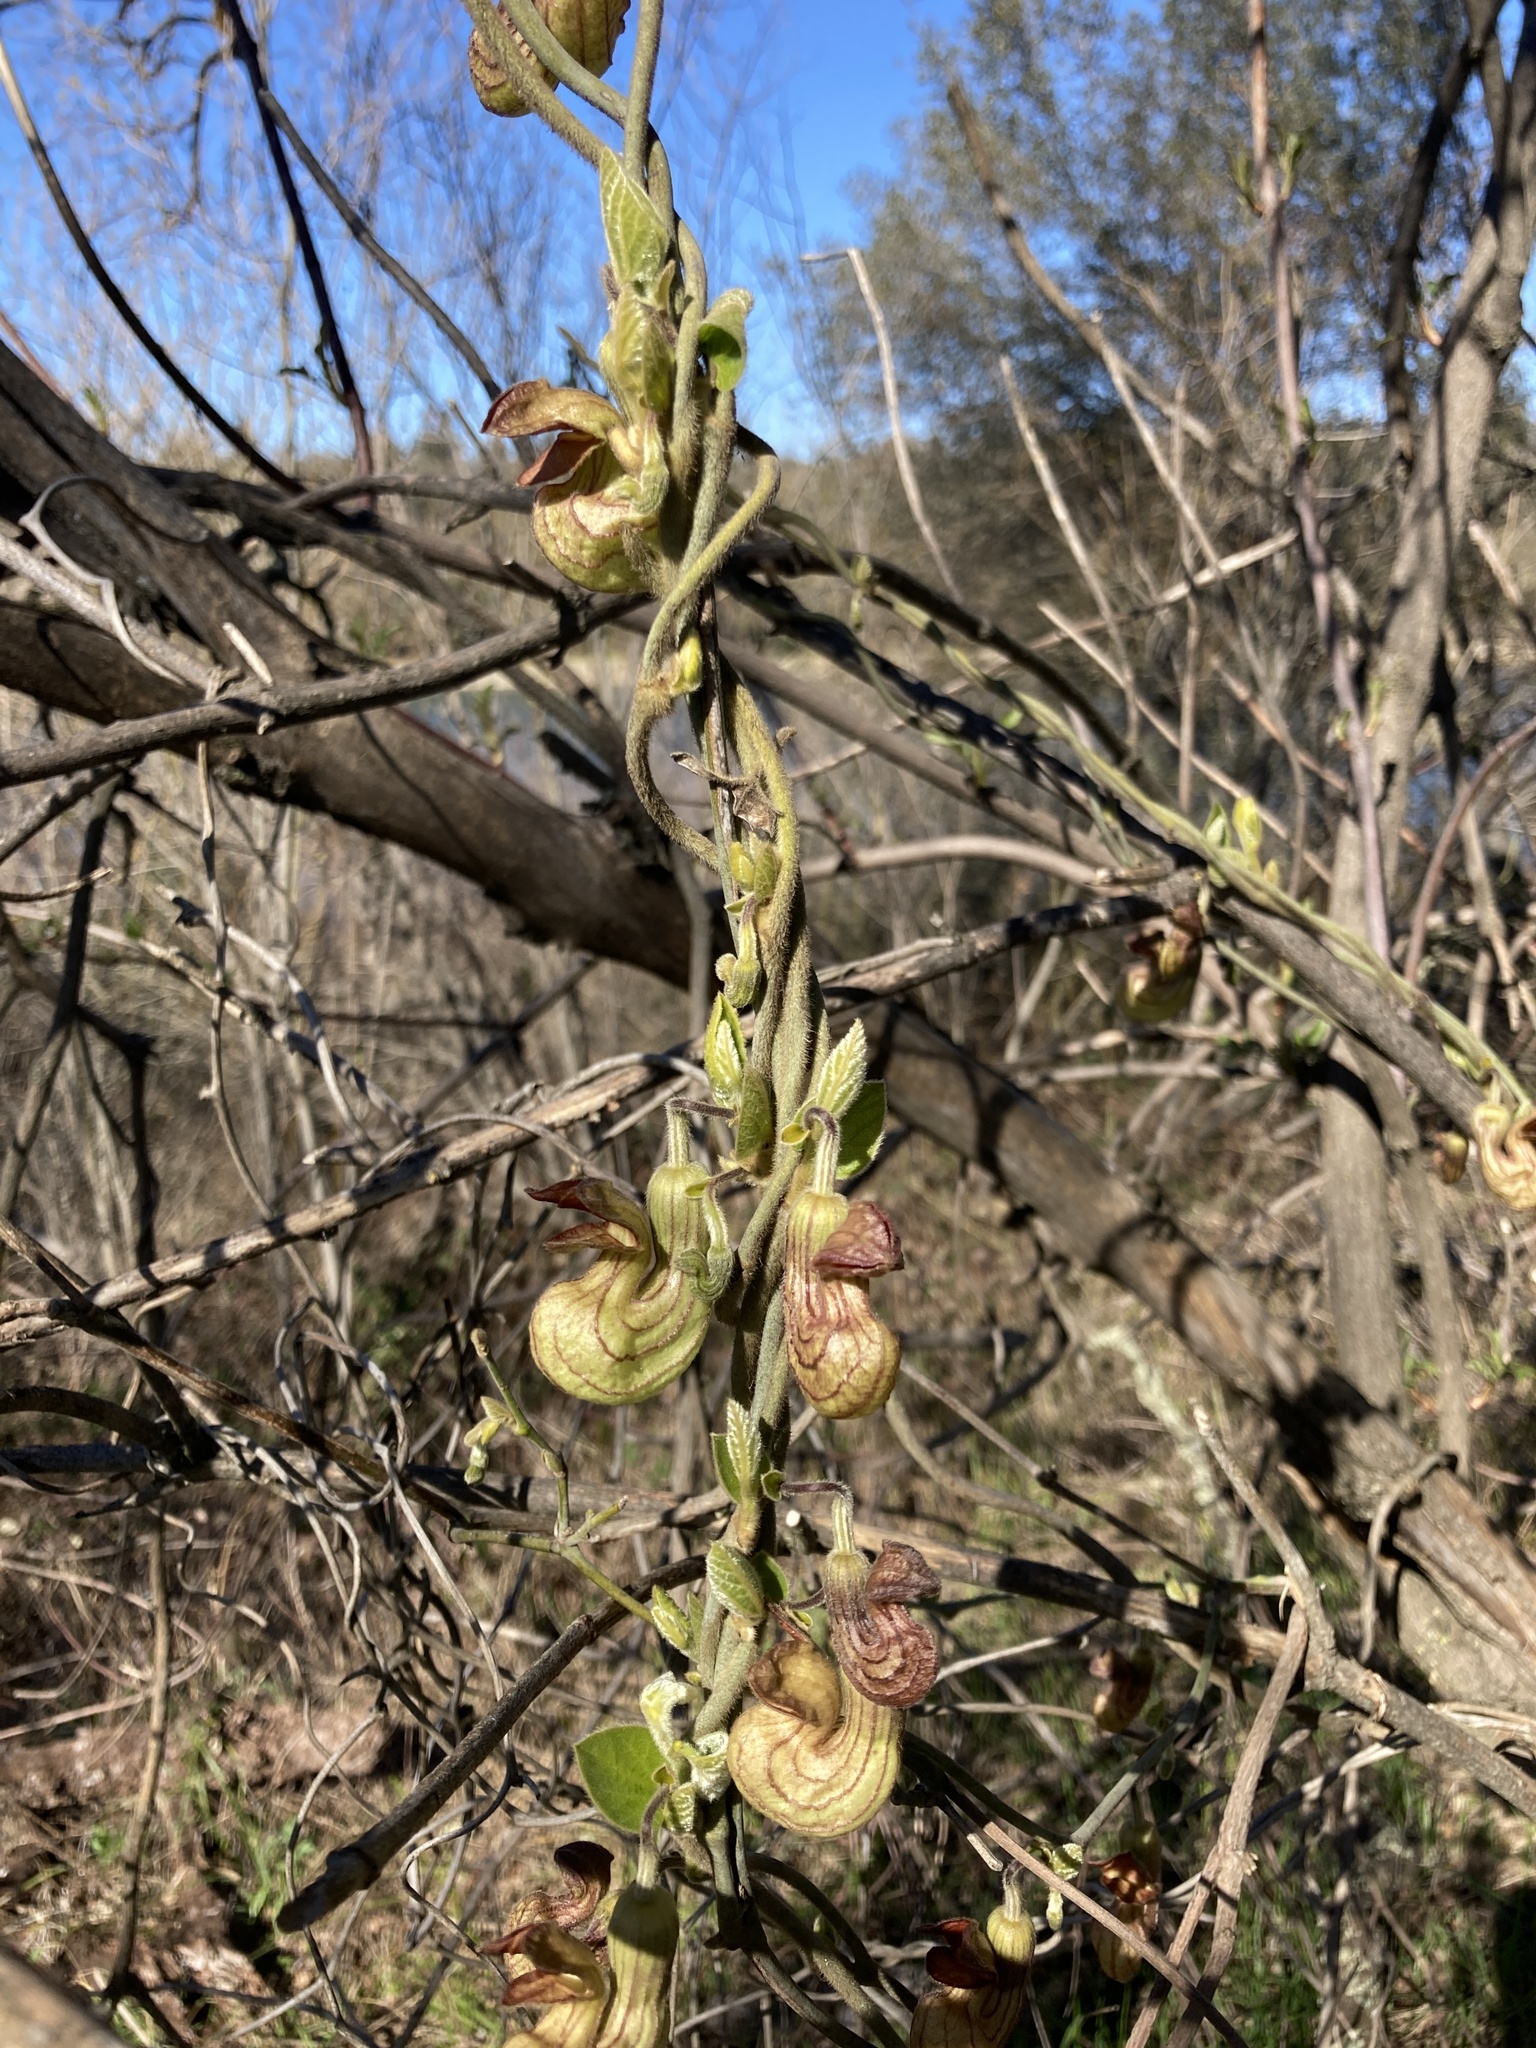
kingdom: Plantae
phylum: Tracheophyta
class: Magnoliopsida
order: Piperales
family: Aristolochiaceae
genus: Isotrema
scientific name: Isotrema californicum
